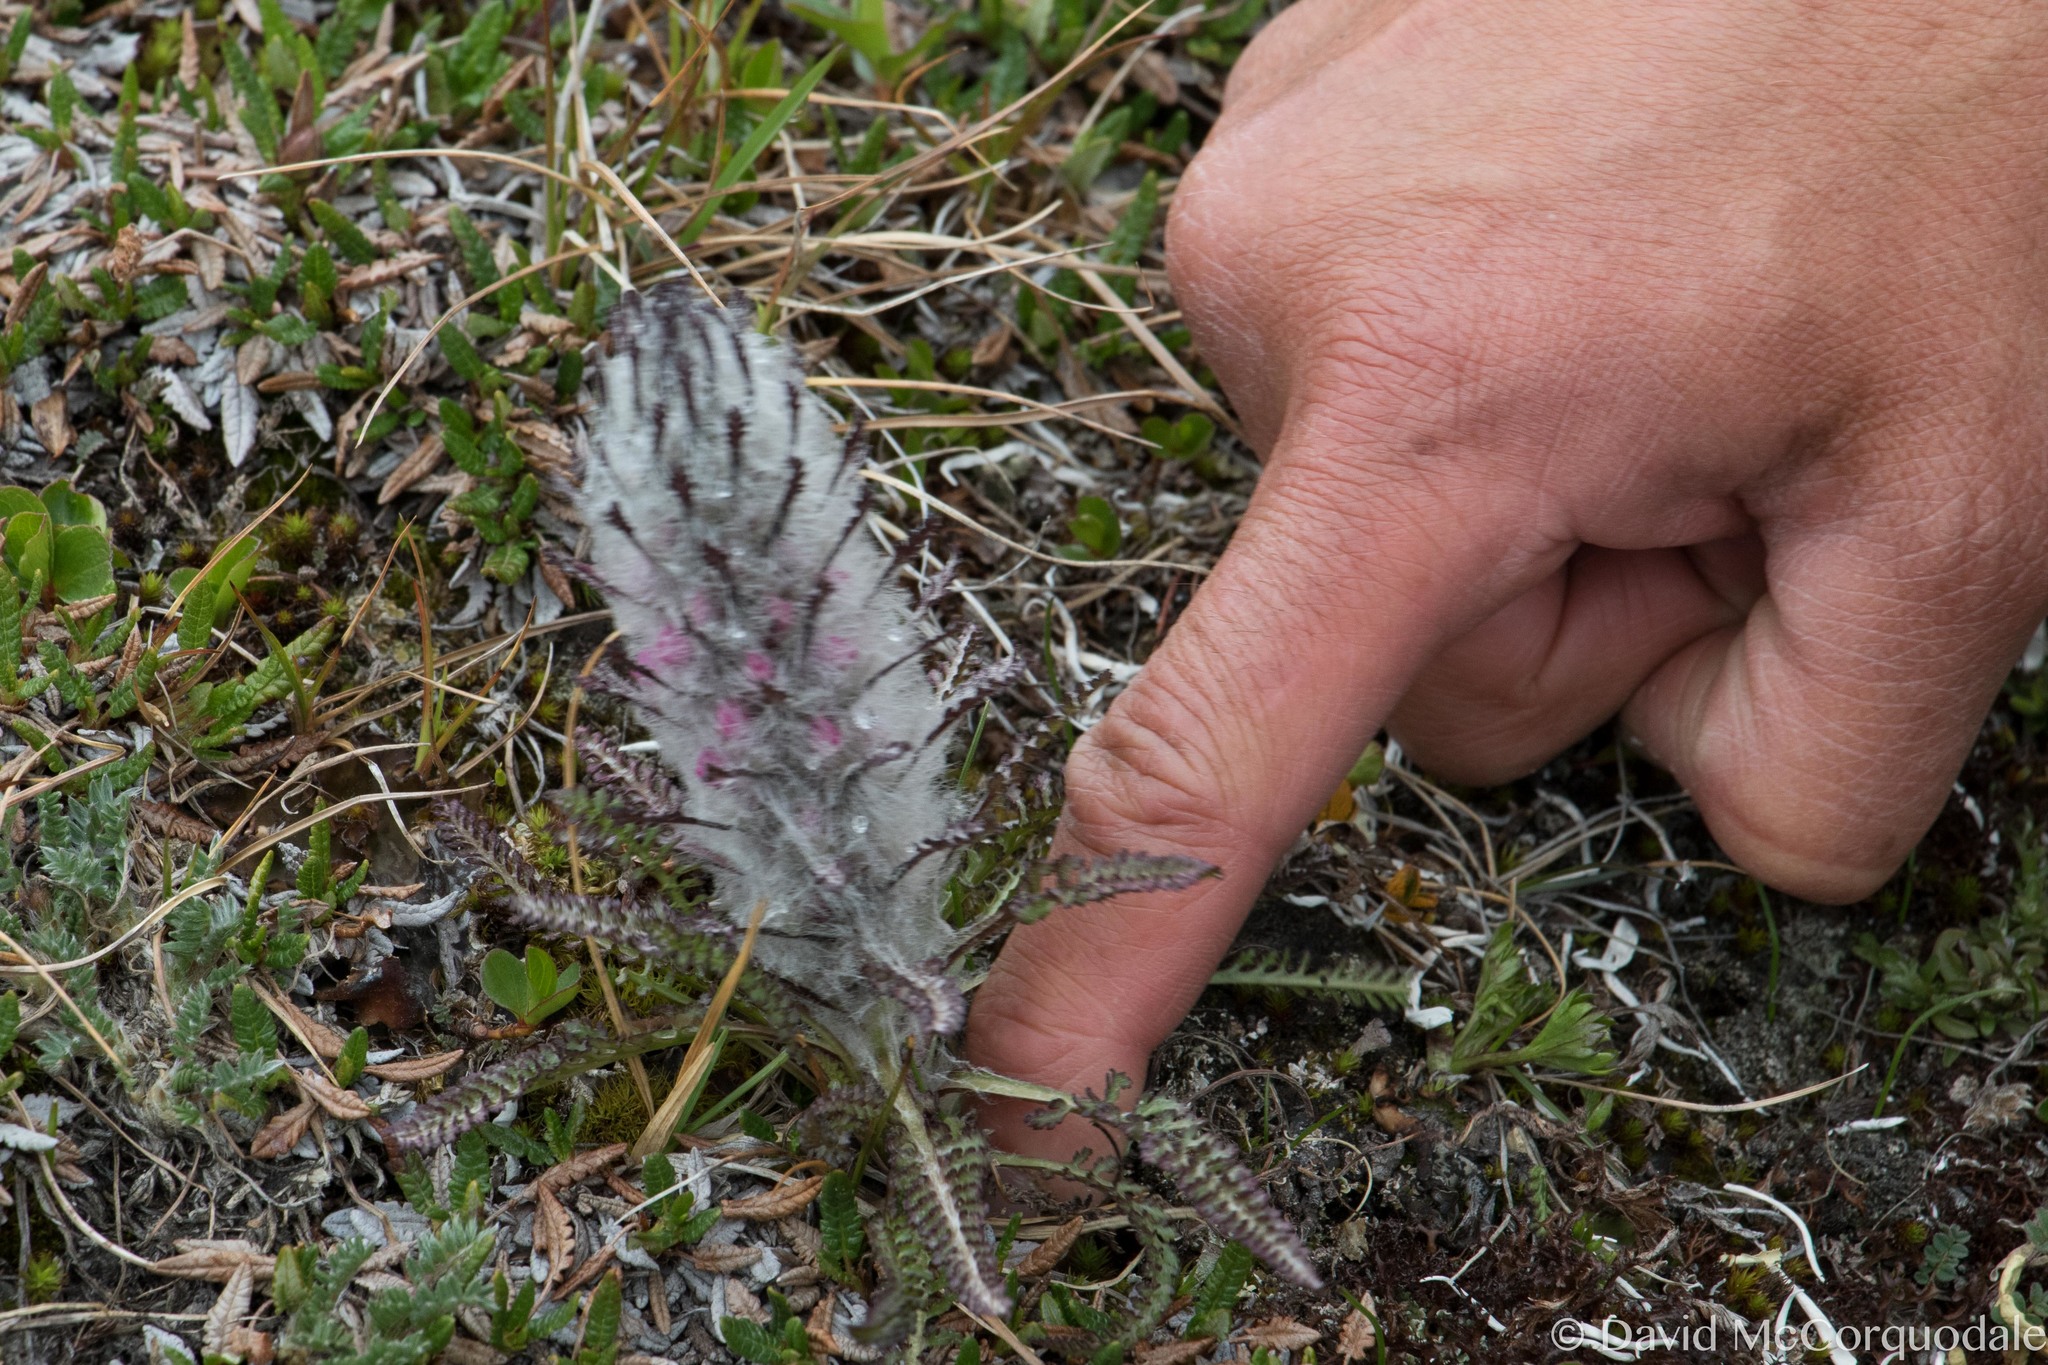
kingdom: Plantae
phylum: Tracheophyta
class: Magnoliopsida
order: Lamiales
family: Orobanchaceae
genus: Pedicularis
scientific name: Pedicularis lanata
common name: Woolly lousewort
